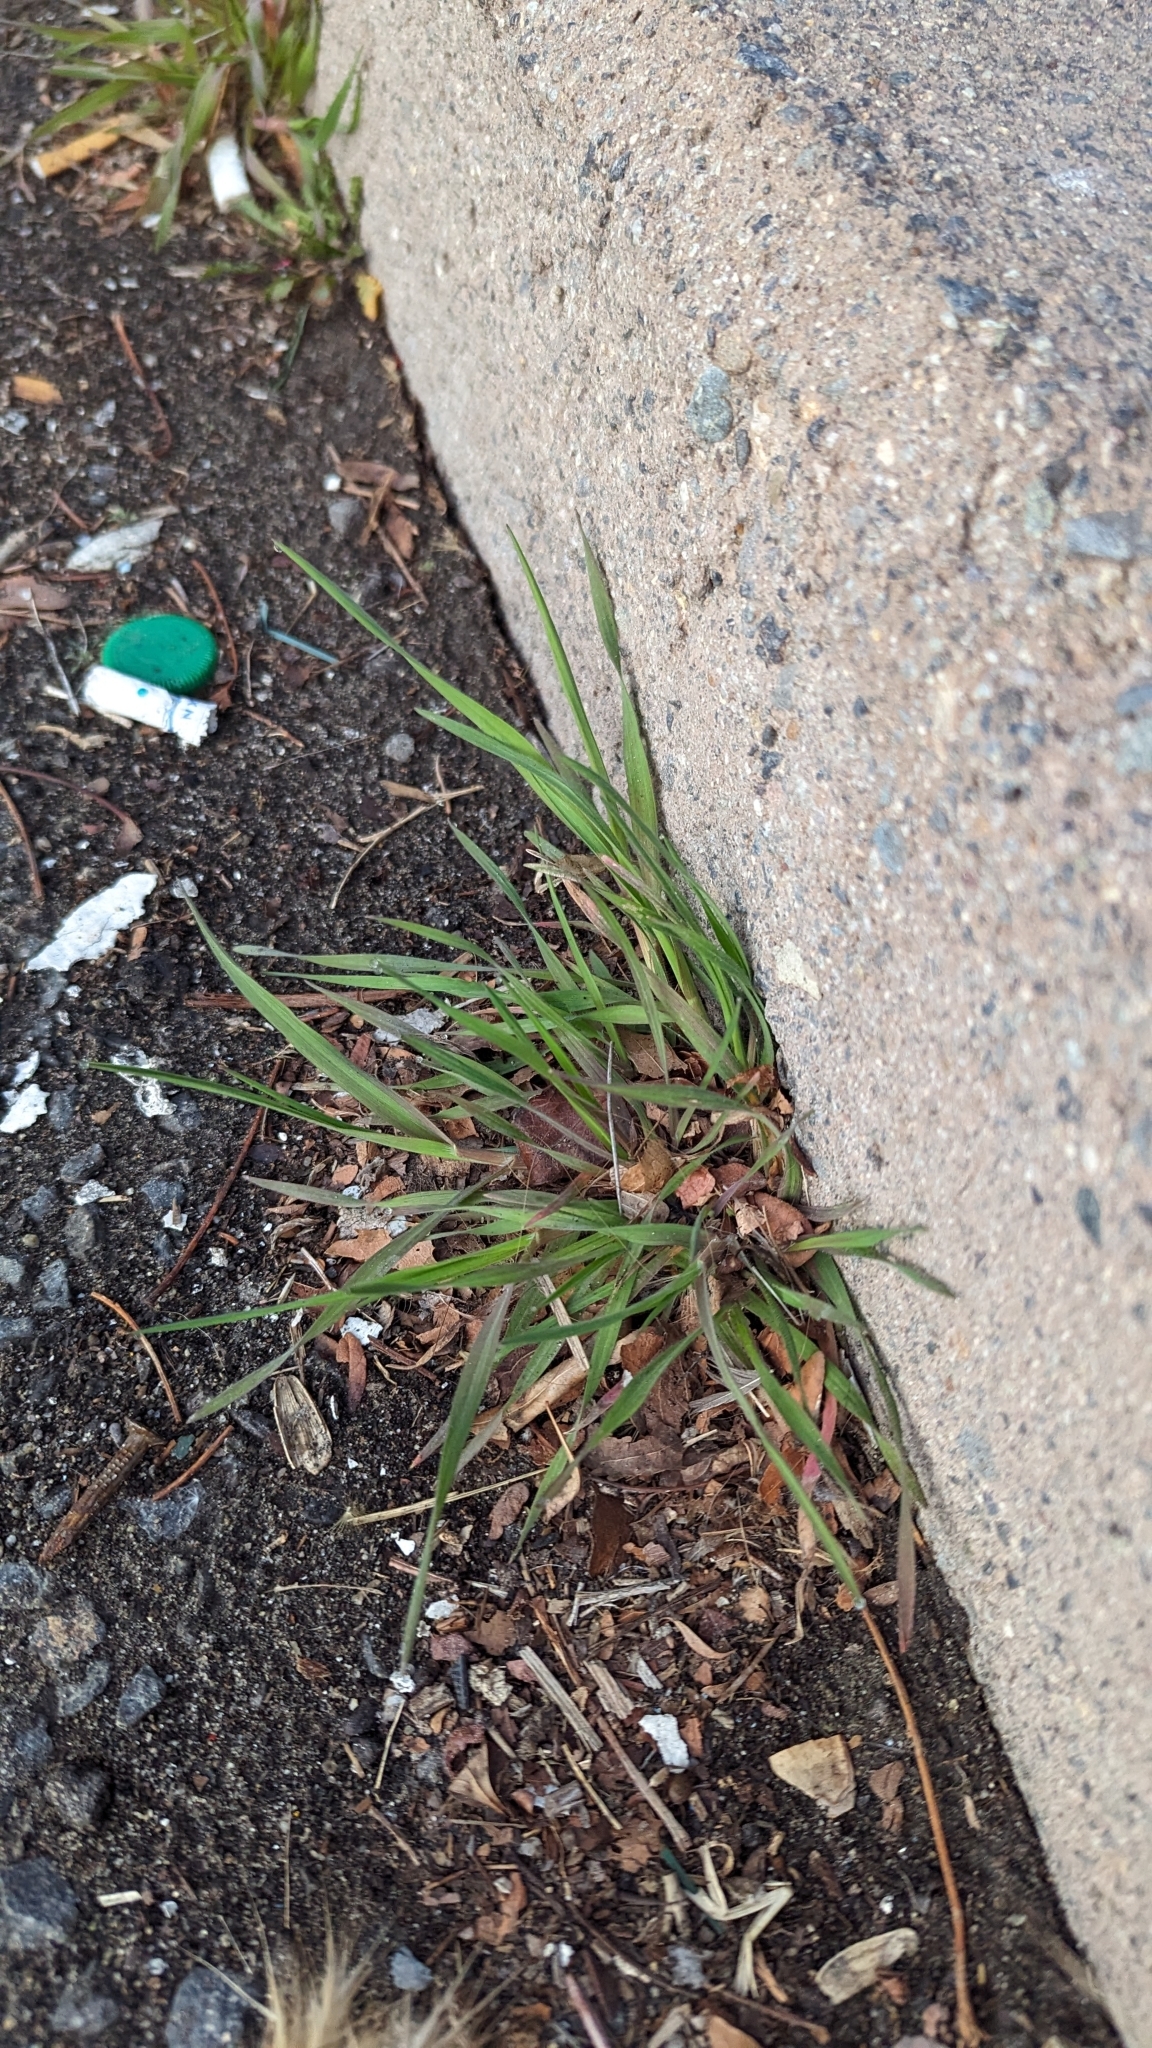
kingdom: Plantae
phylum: Tracheophyta
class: Liliopsida
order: Poales
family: Poaceae
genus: Bromus
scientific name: Bromus tectorum
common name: Cheatgrass
